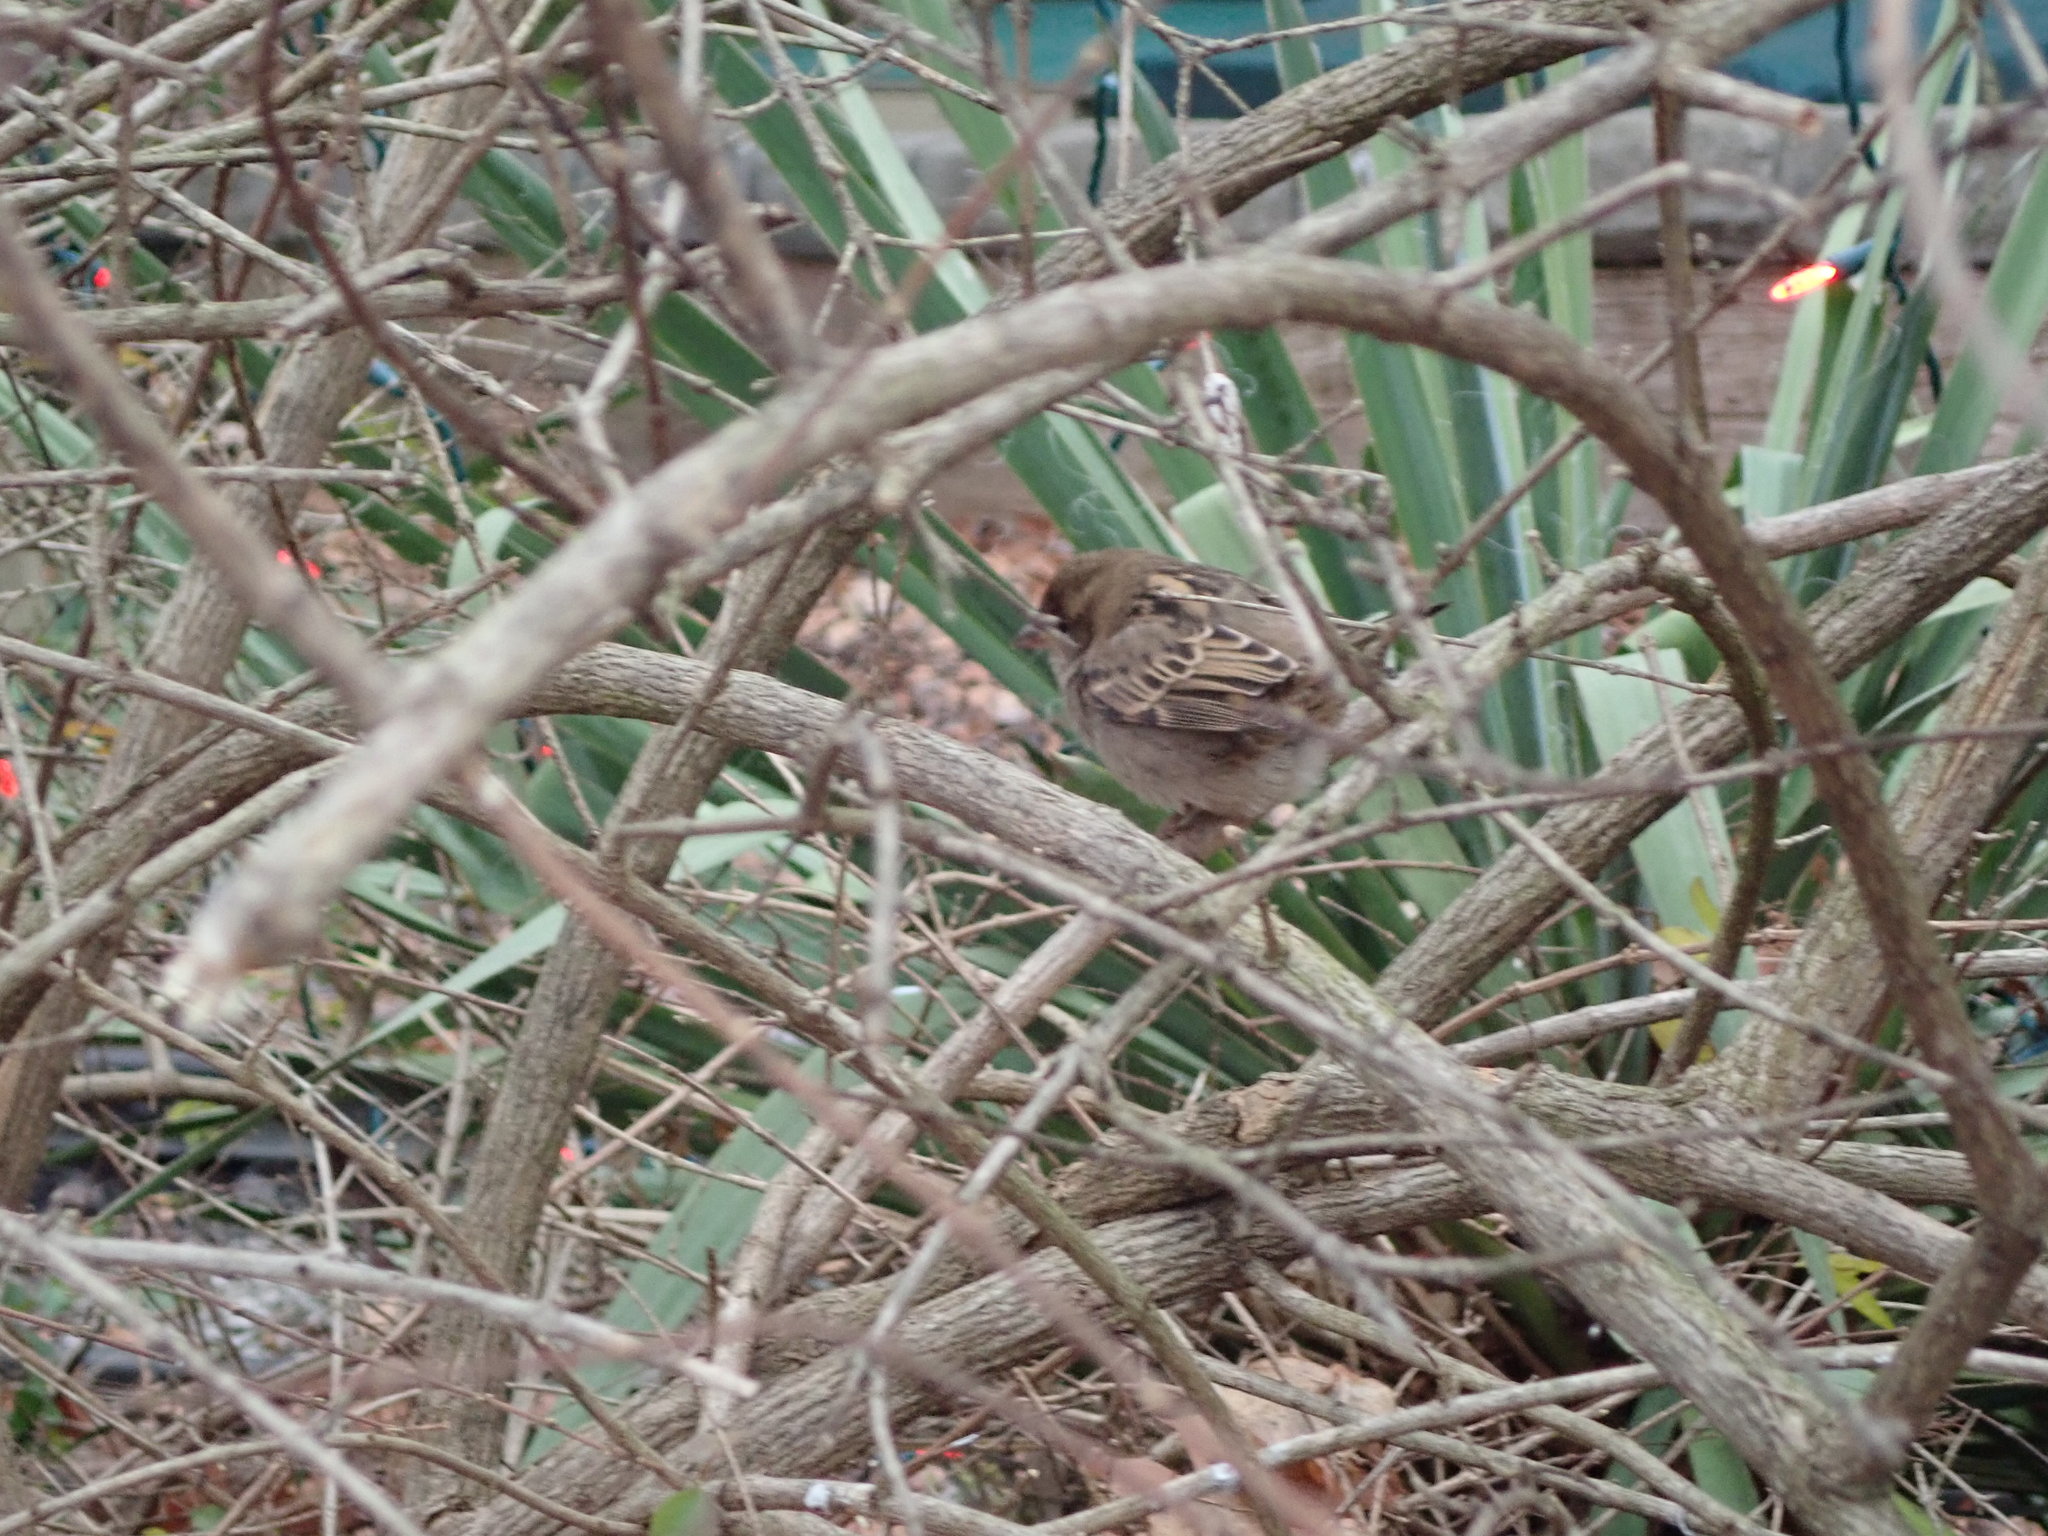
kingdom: Animalia
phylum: Chordata
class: Aves
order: Passeriformes
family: Passeridae
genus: Passer
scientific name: Passer domesticus
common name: House sparrow
